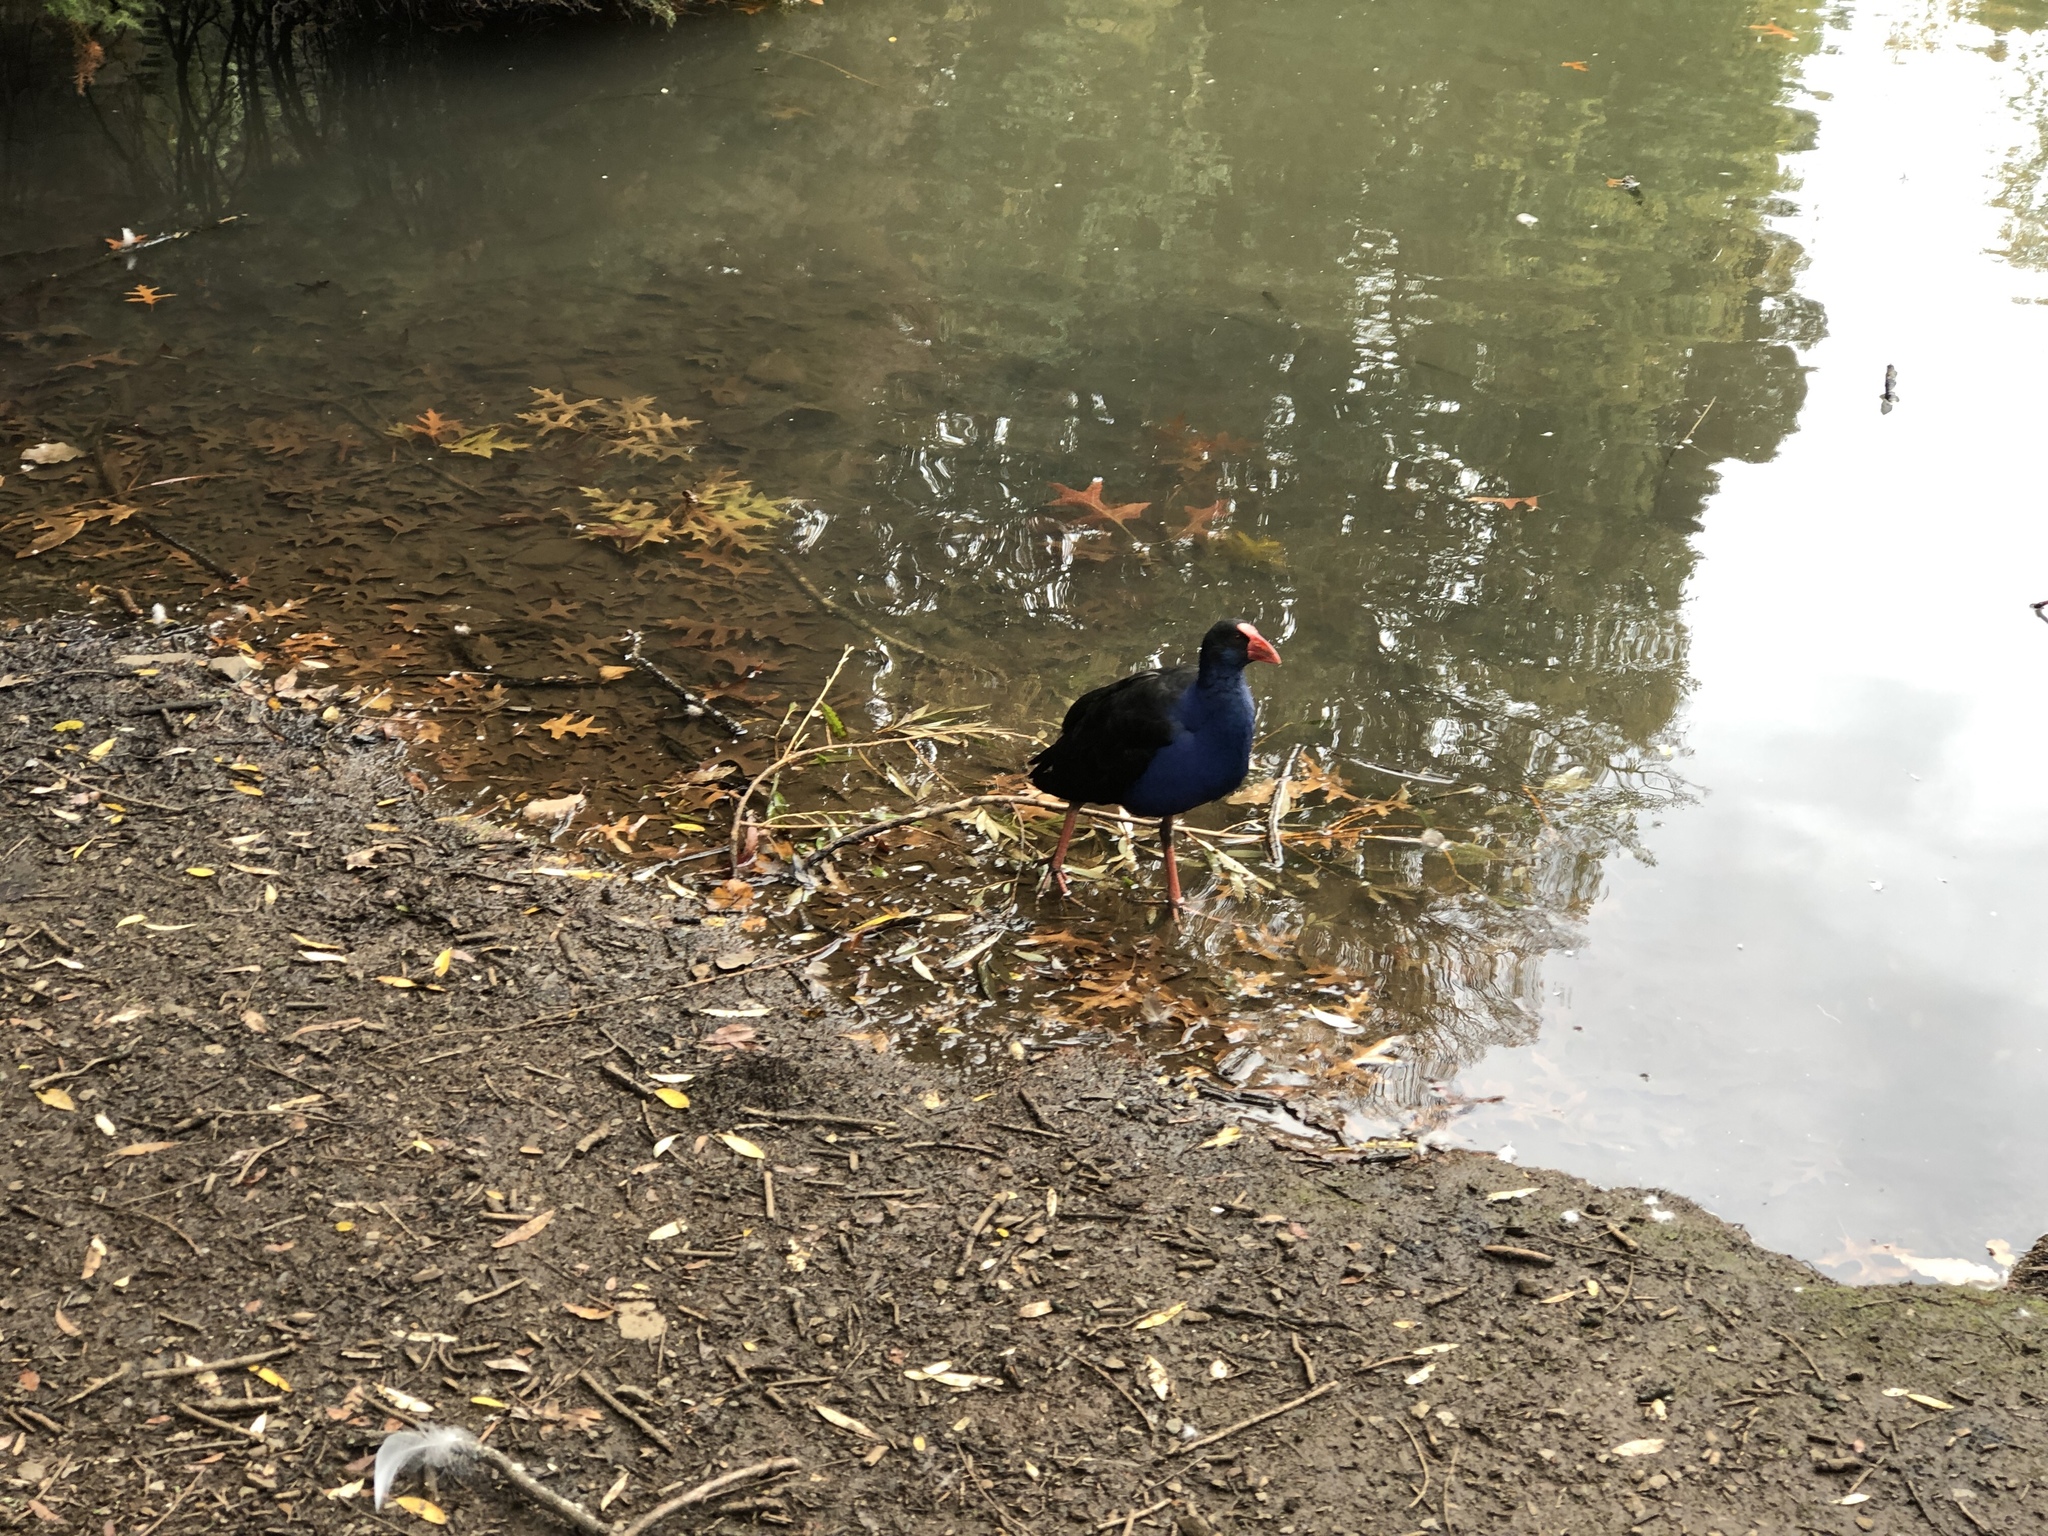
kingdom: Animalia
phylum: Chordata
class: Aves
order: Gruiformes
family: Rallidae
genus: Porphyrio
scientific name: Porphyrio melanotus
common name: Australasian swamphen
